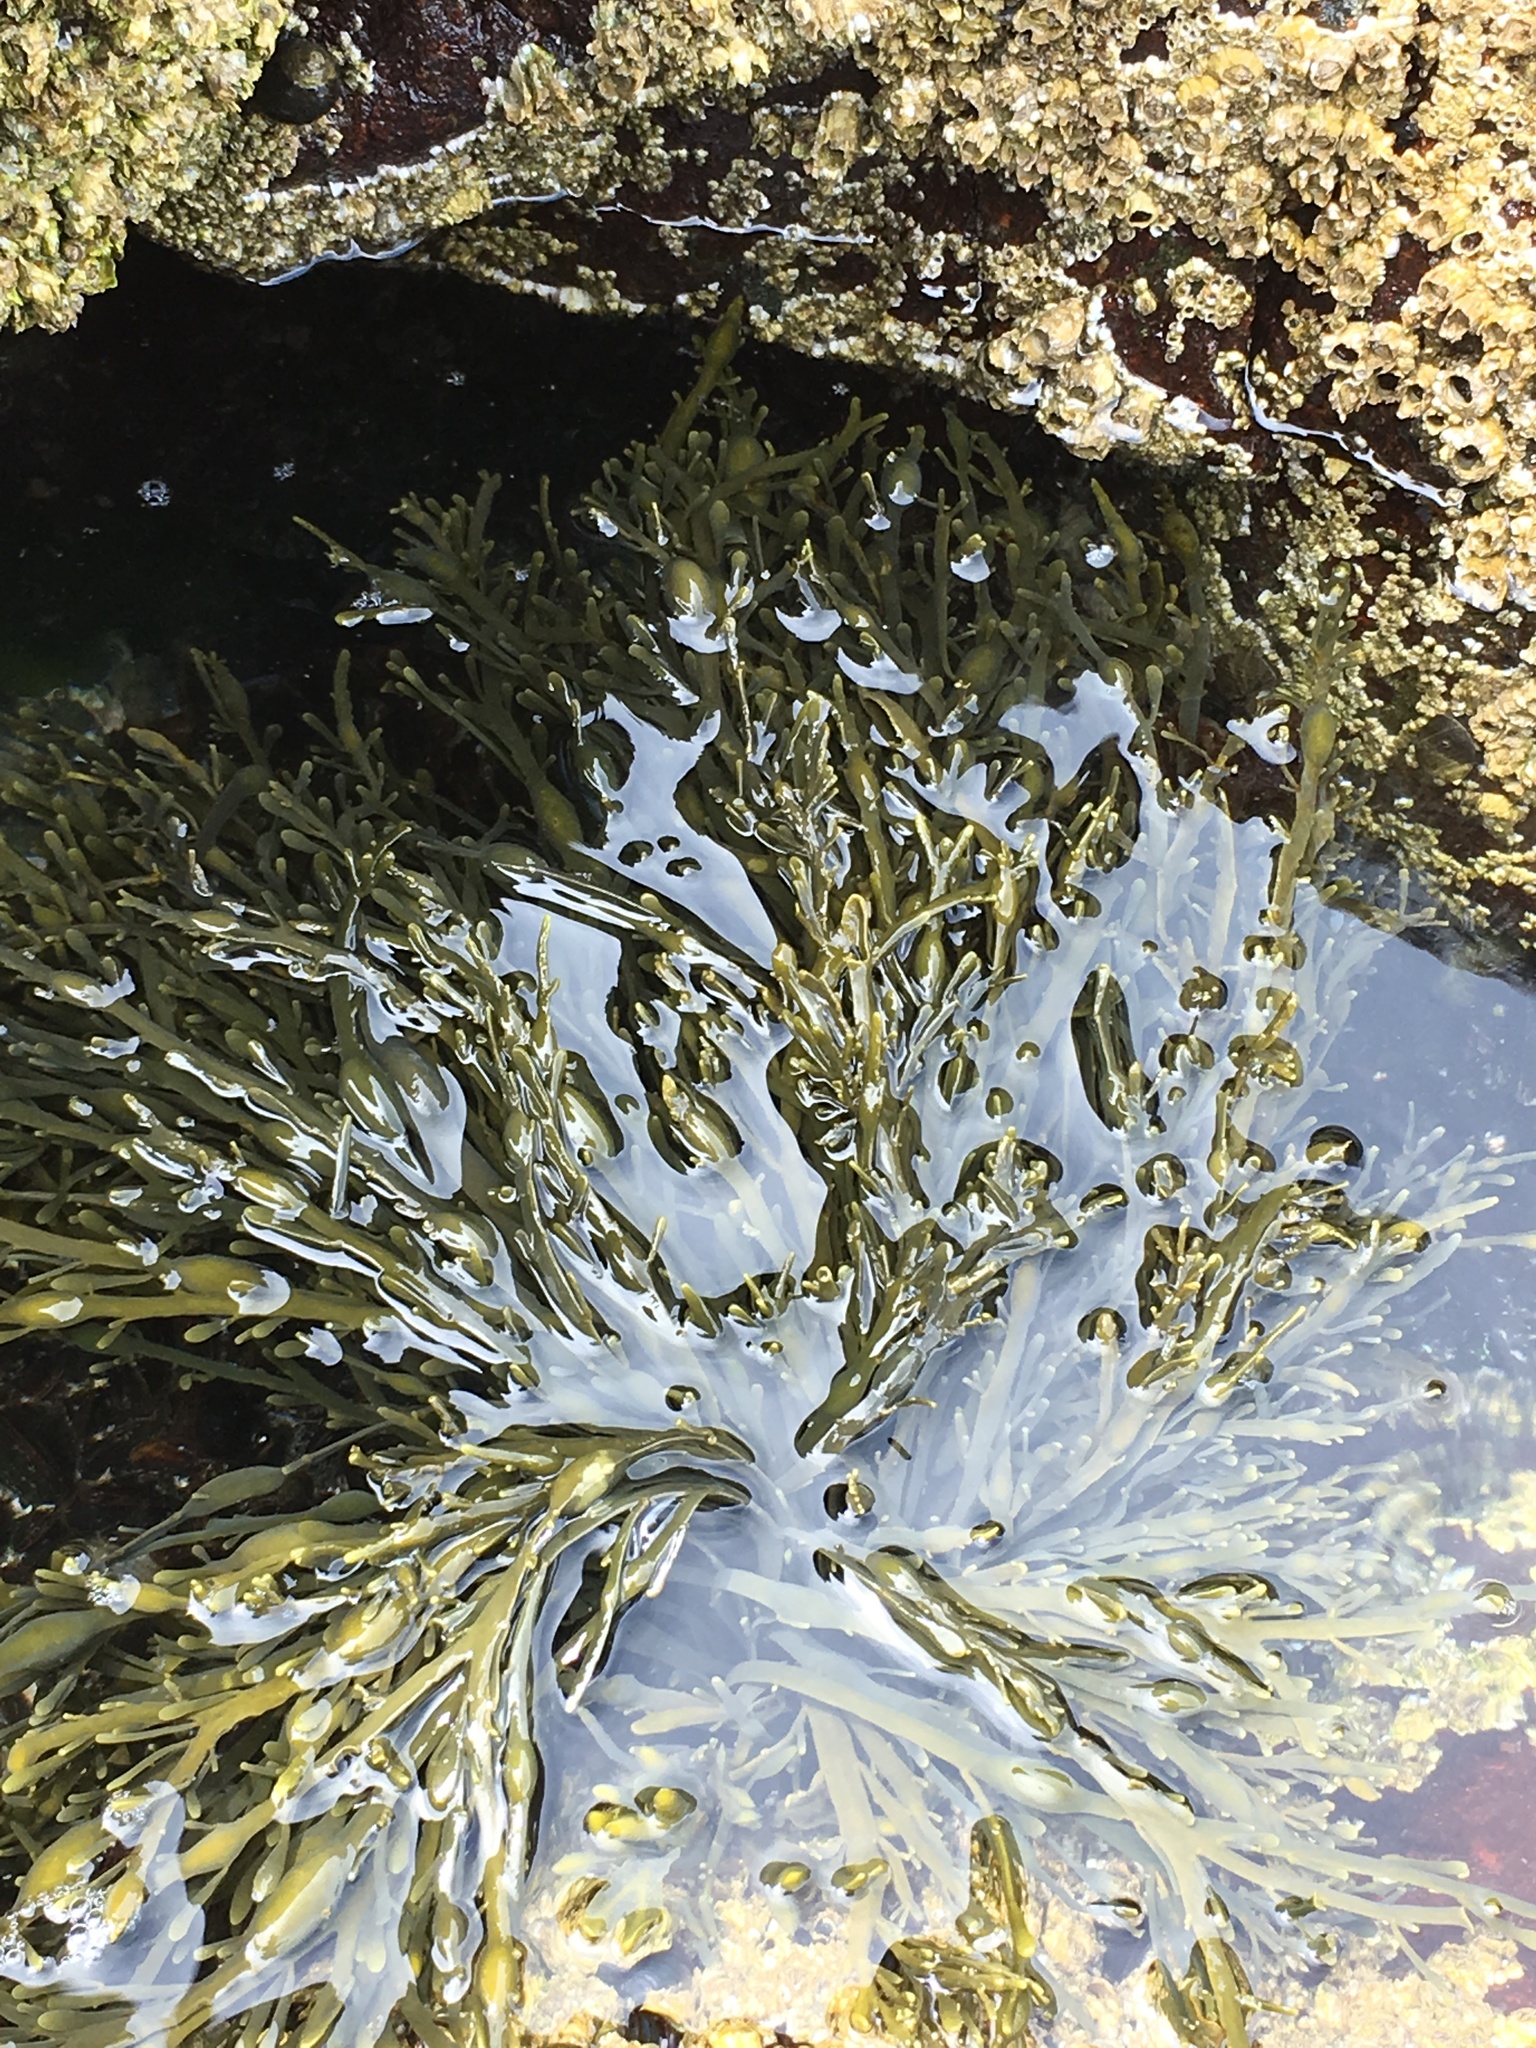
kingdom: Chromista
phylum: Ochrophyta
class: Phaeophyceae
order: Fucales
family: Fucaceae
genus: Ascophyllum
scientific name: Ascophyllum nodosum
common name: Knotted wrack
